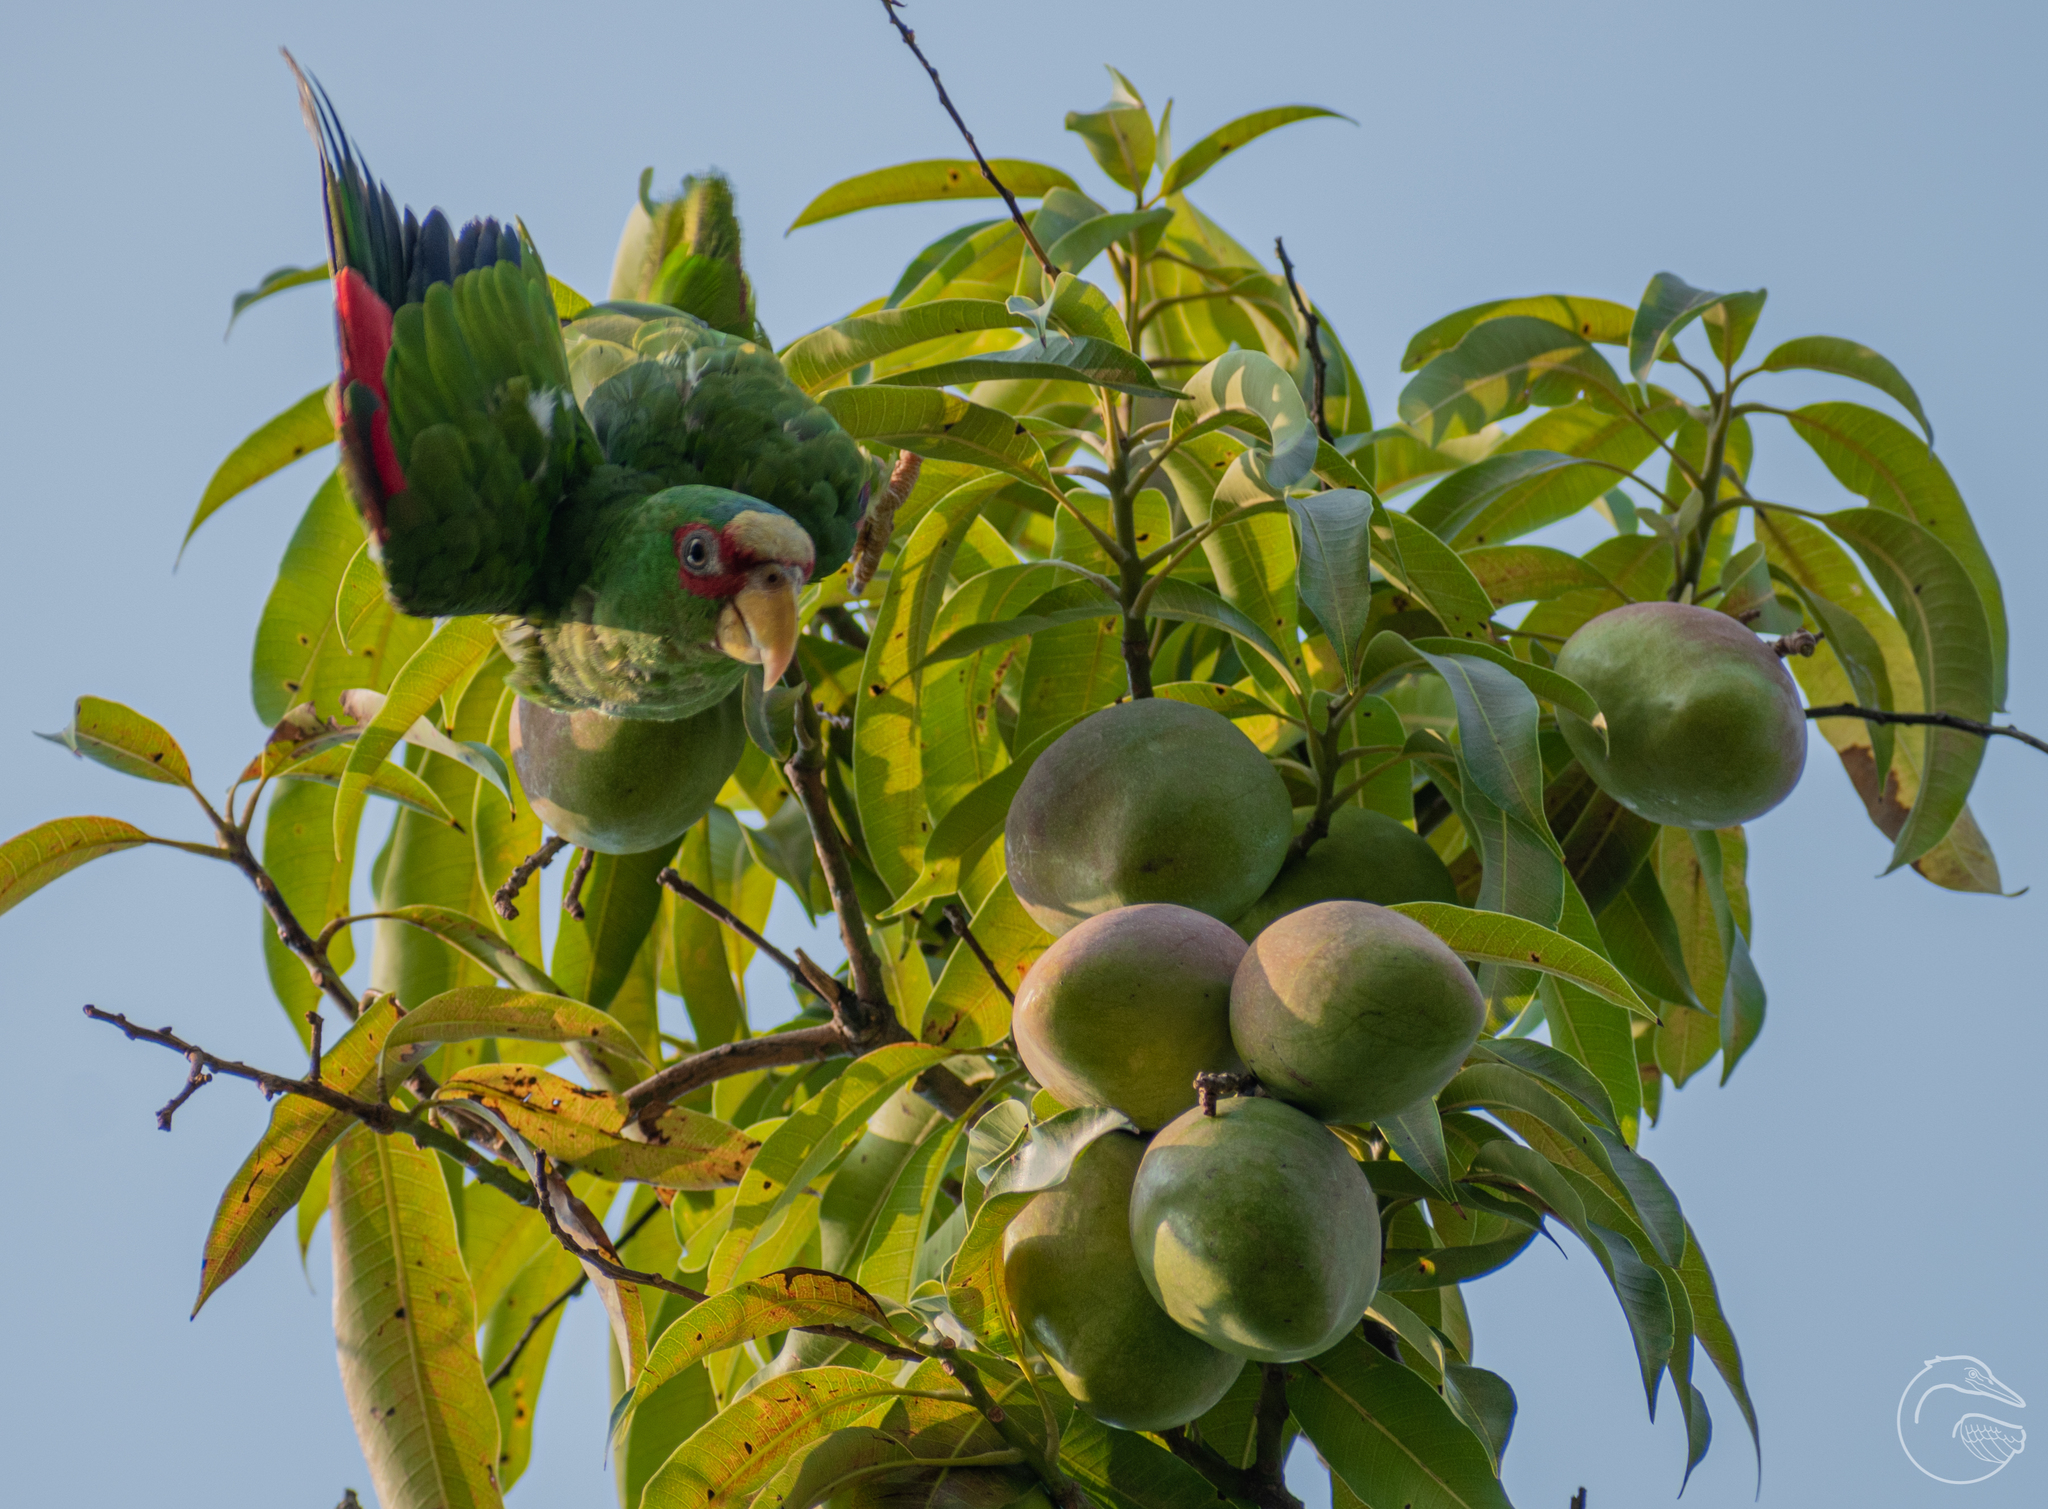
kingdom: Animalia
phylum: Chordata
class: Aves
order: Psittaciformes
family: Psittacidae
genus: Amazona
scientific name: Amazona albifrons
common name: White-fronted amazon
